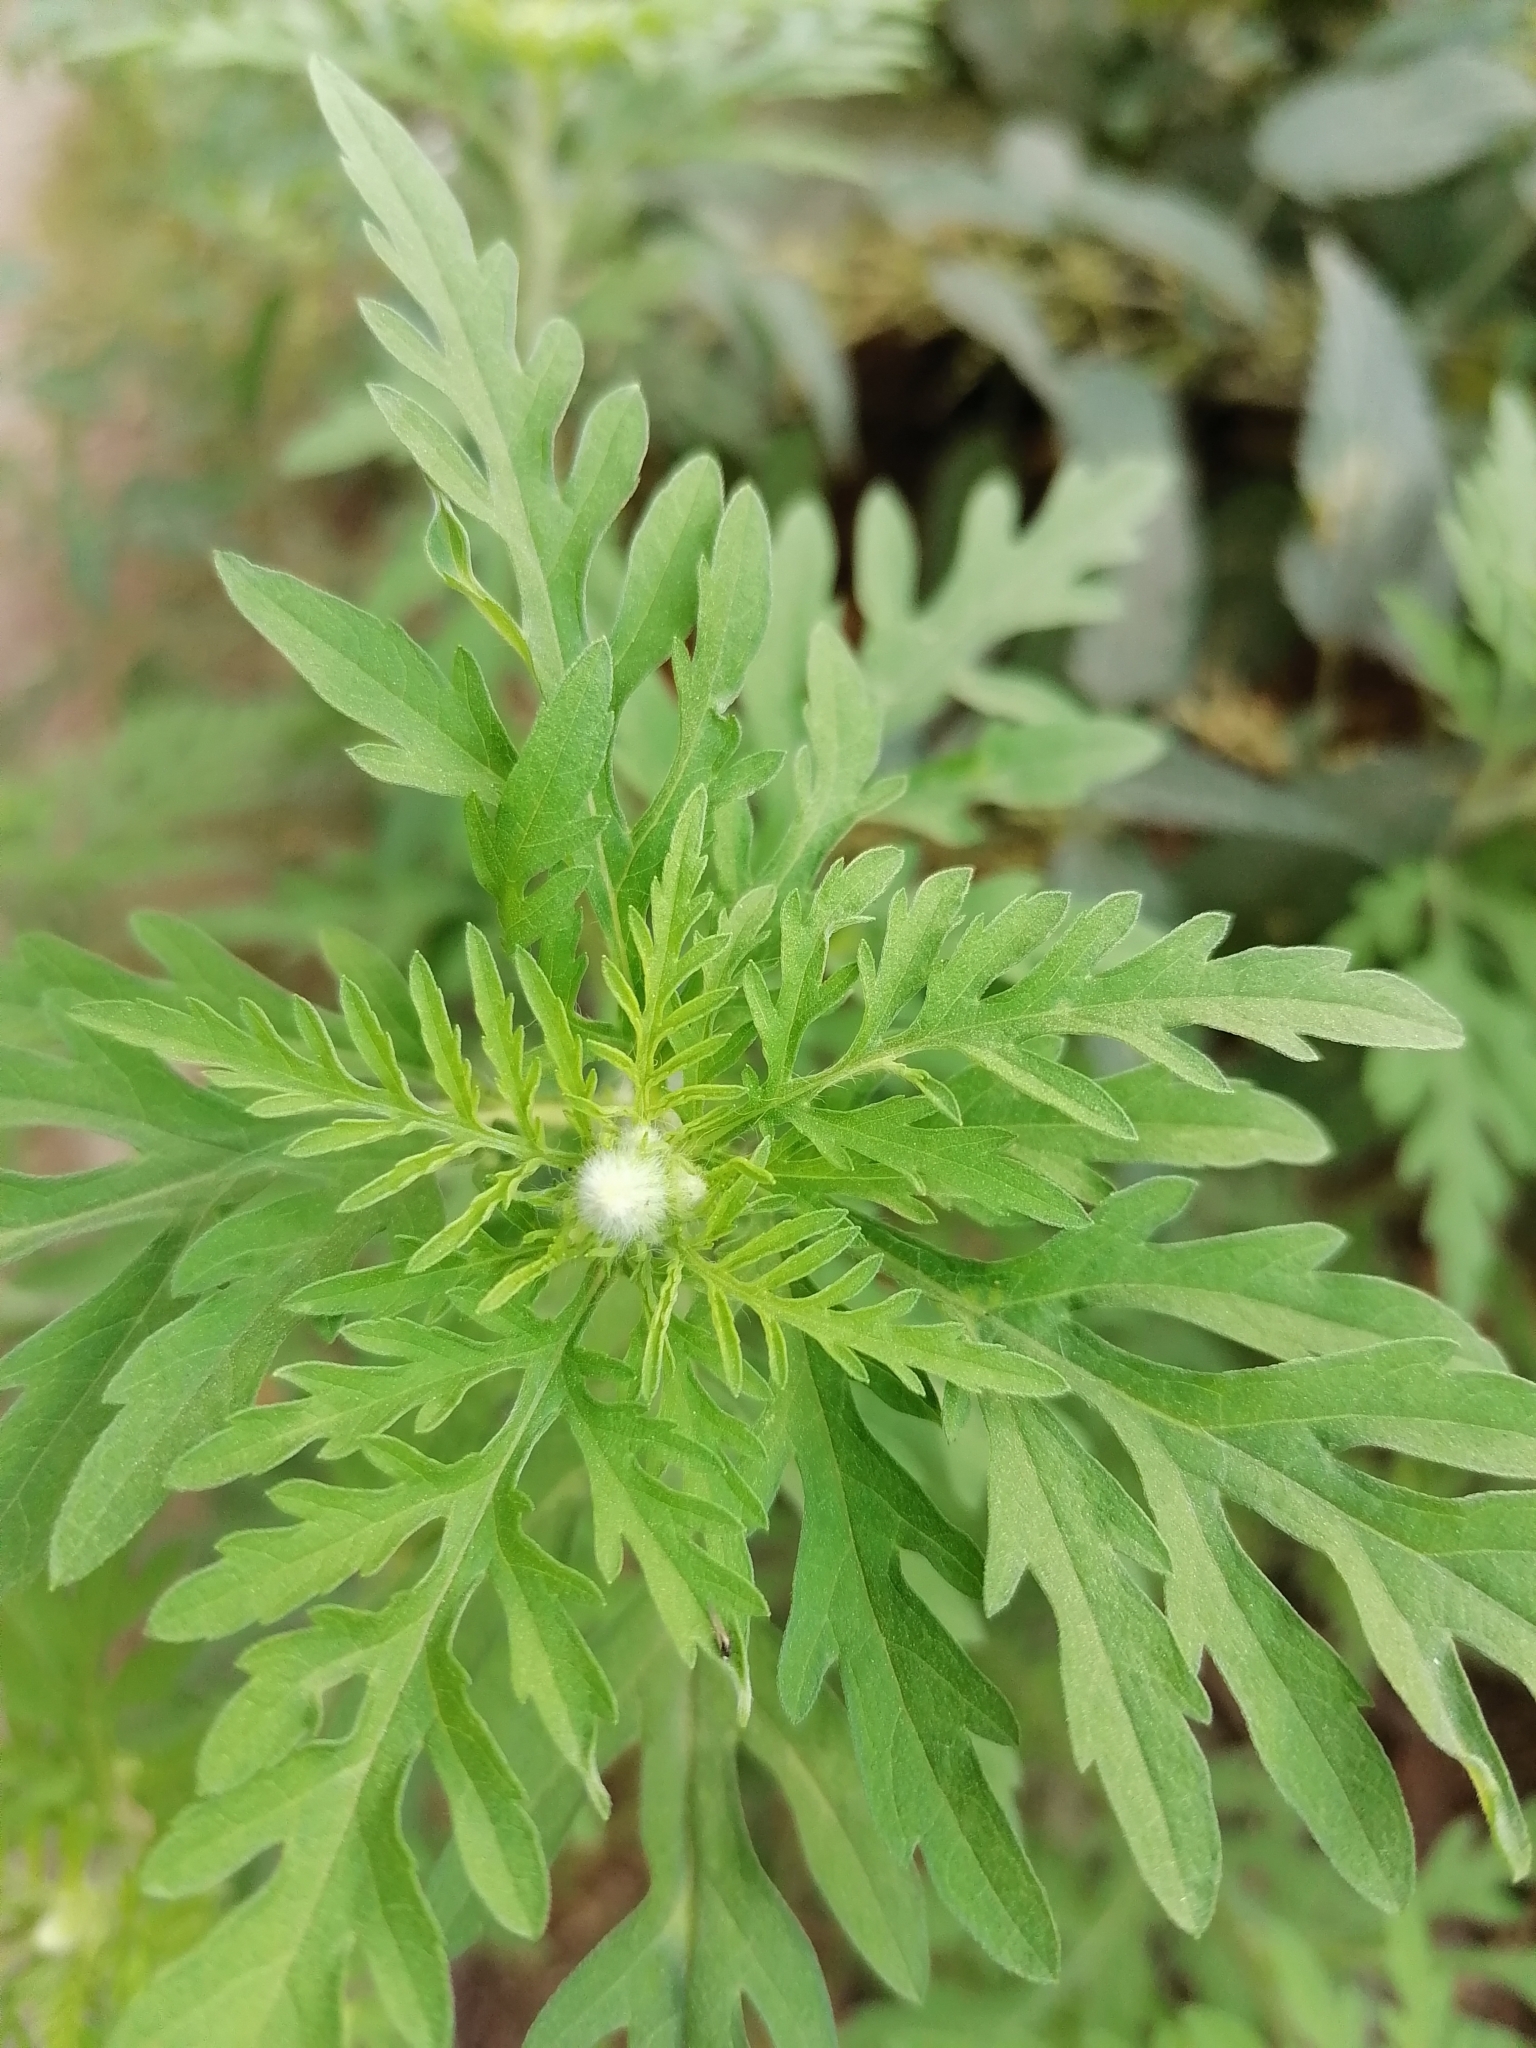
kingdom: Plantae
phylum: Tracheophyta
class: Magnoliopsida
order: Asterales
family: Asteraceae
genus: Ambrosia
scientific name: Ambrosia artemisiifolia
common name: Annual ragweed
